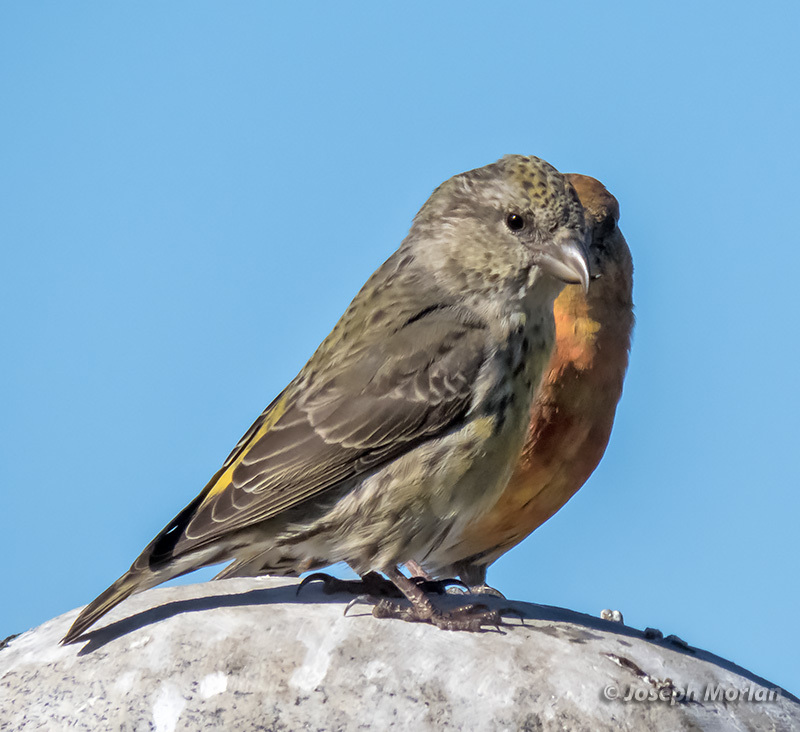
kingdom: Animalia
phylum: Chordata
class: Aves
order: Passeriformes
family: Fringillidae
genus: Loxia
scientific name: Loxia curvirostra
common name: Red crossbill
